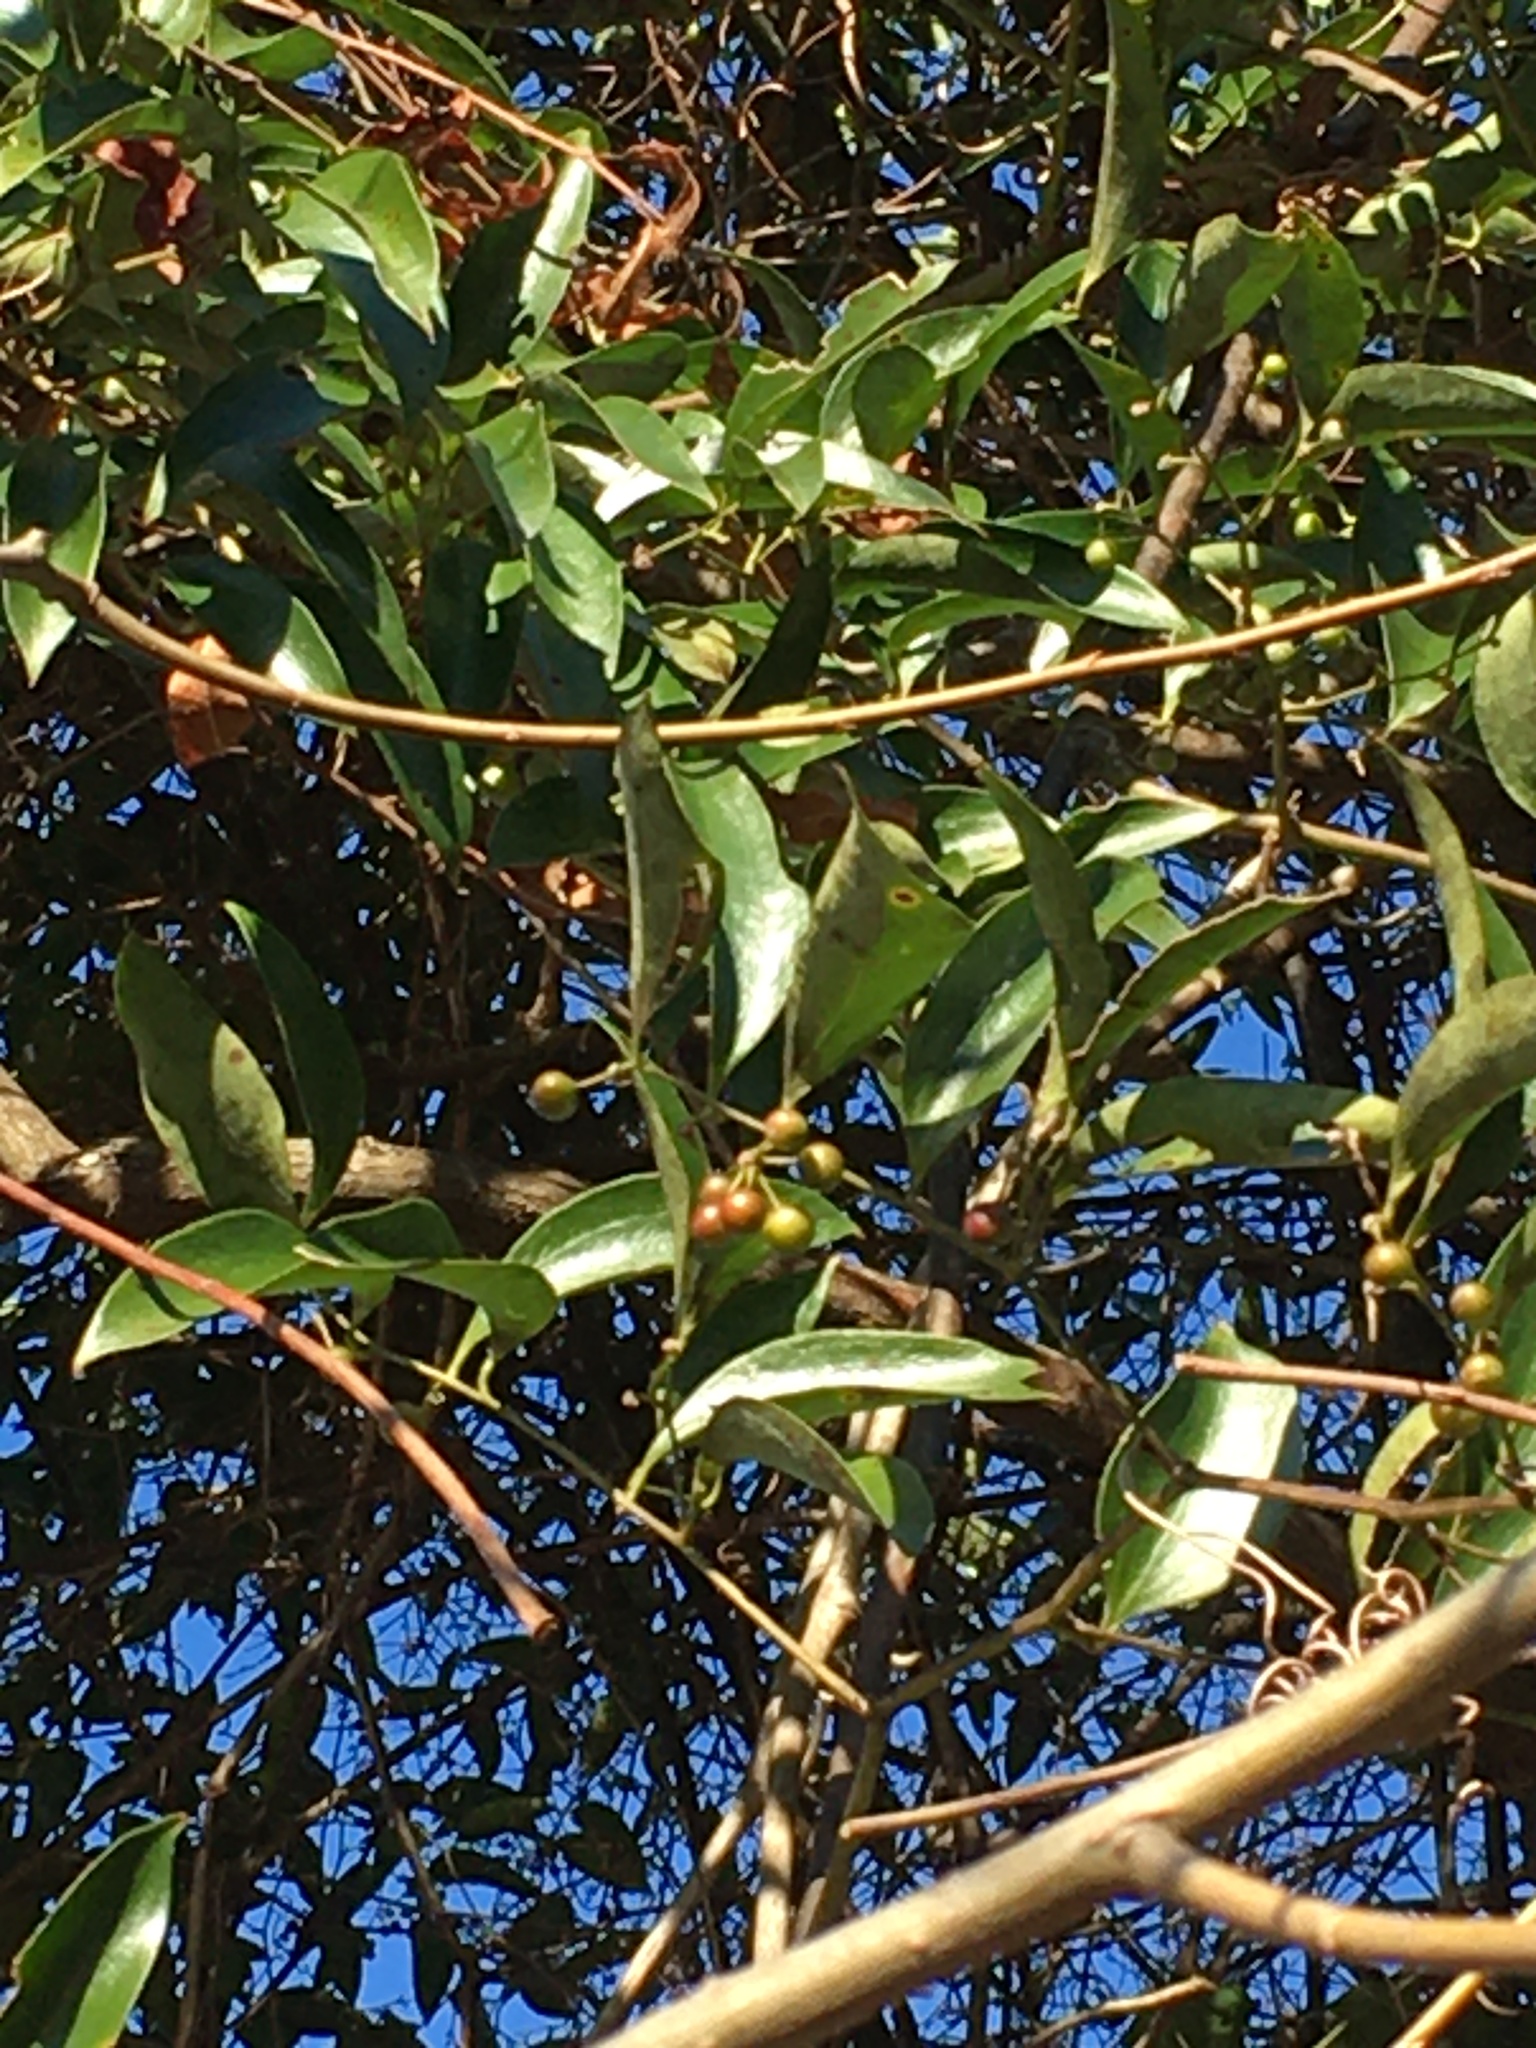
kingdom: Plantae
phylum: Tracheophyta
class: Liliopsida
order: Liliales
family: Smilacaceae
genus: Smilax
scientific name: Smilax maritima
